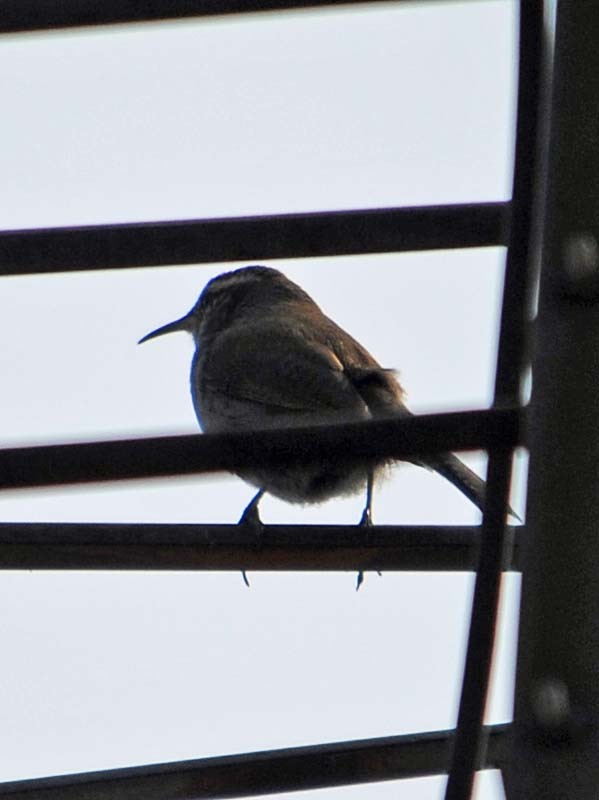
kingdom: Animalia
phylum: Chordata
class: Aves
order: Passeriformes
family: Troglodytidae
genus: Thryomanes
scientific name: Thryomanes bewickii
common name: Bewick's wren
